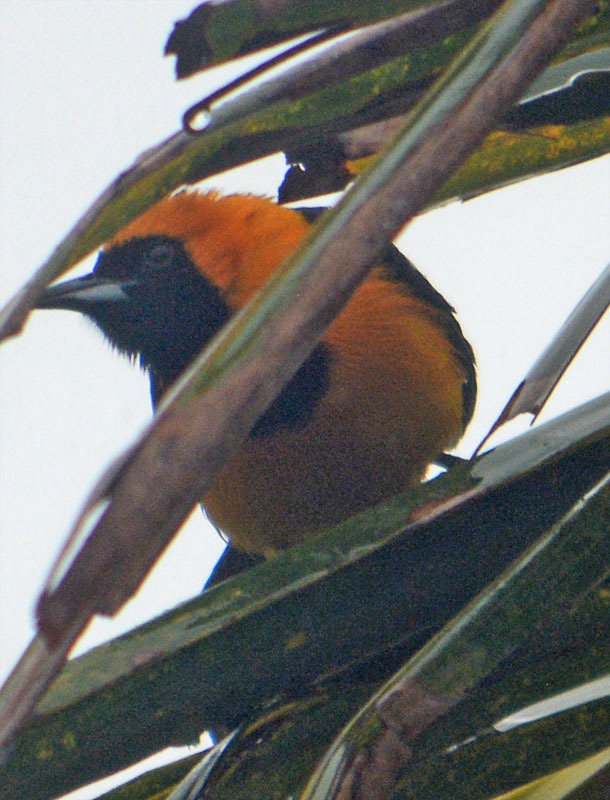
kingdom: Animalia
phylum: Chordata
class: Aves
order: Passeriformes
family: Icteridae
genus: Icterus
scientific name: Icterus cucullatus
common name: Hooded oriole
